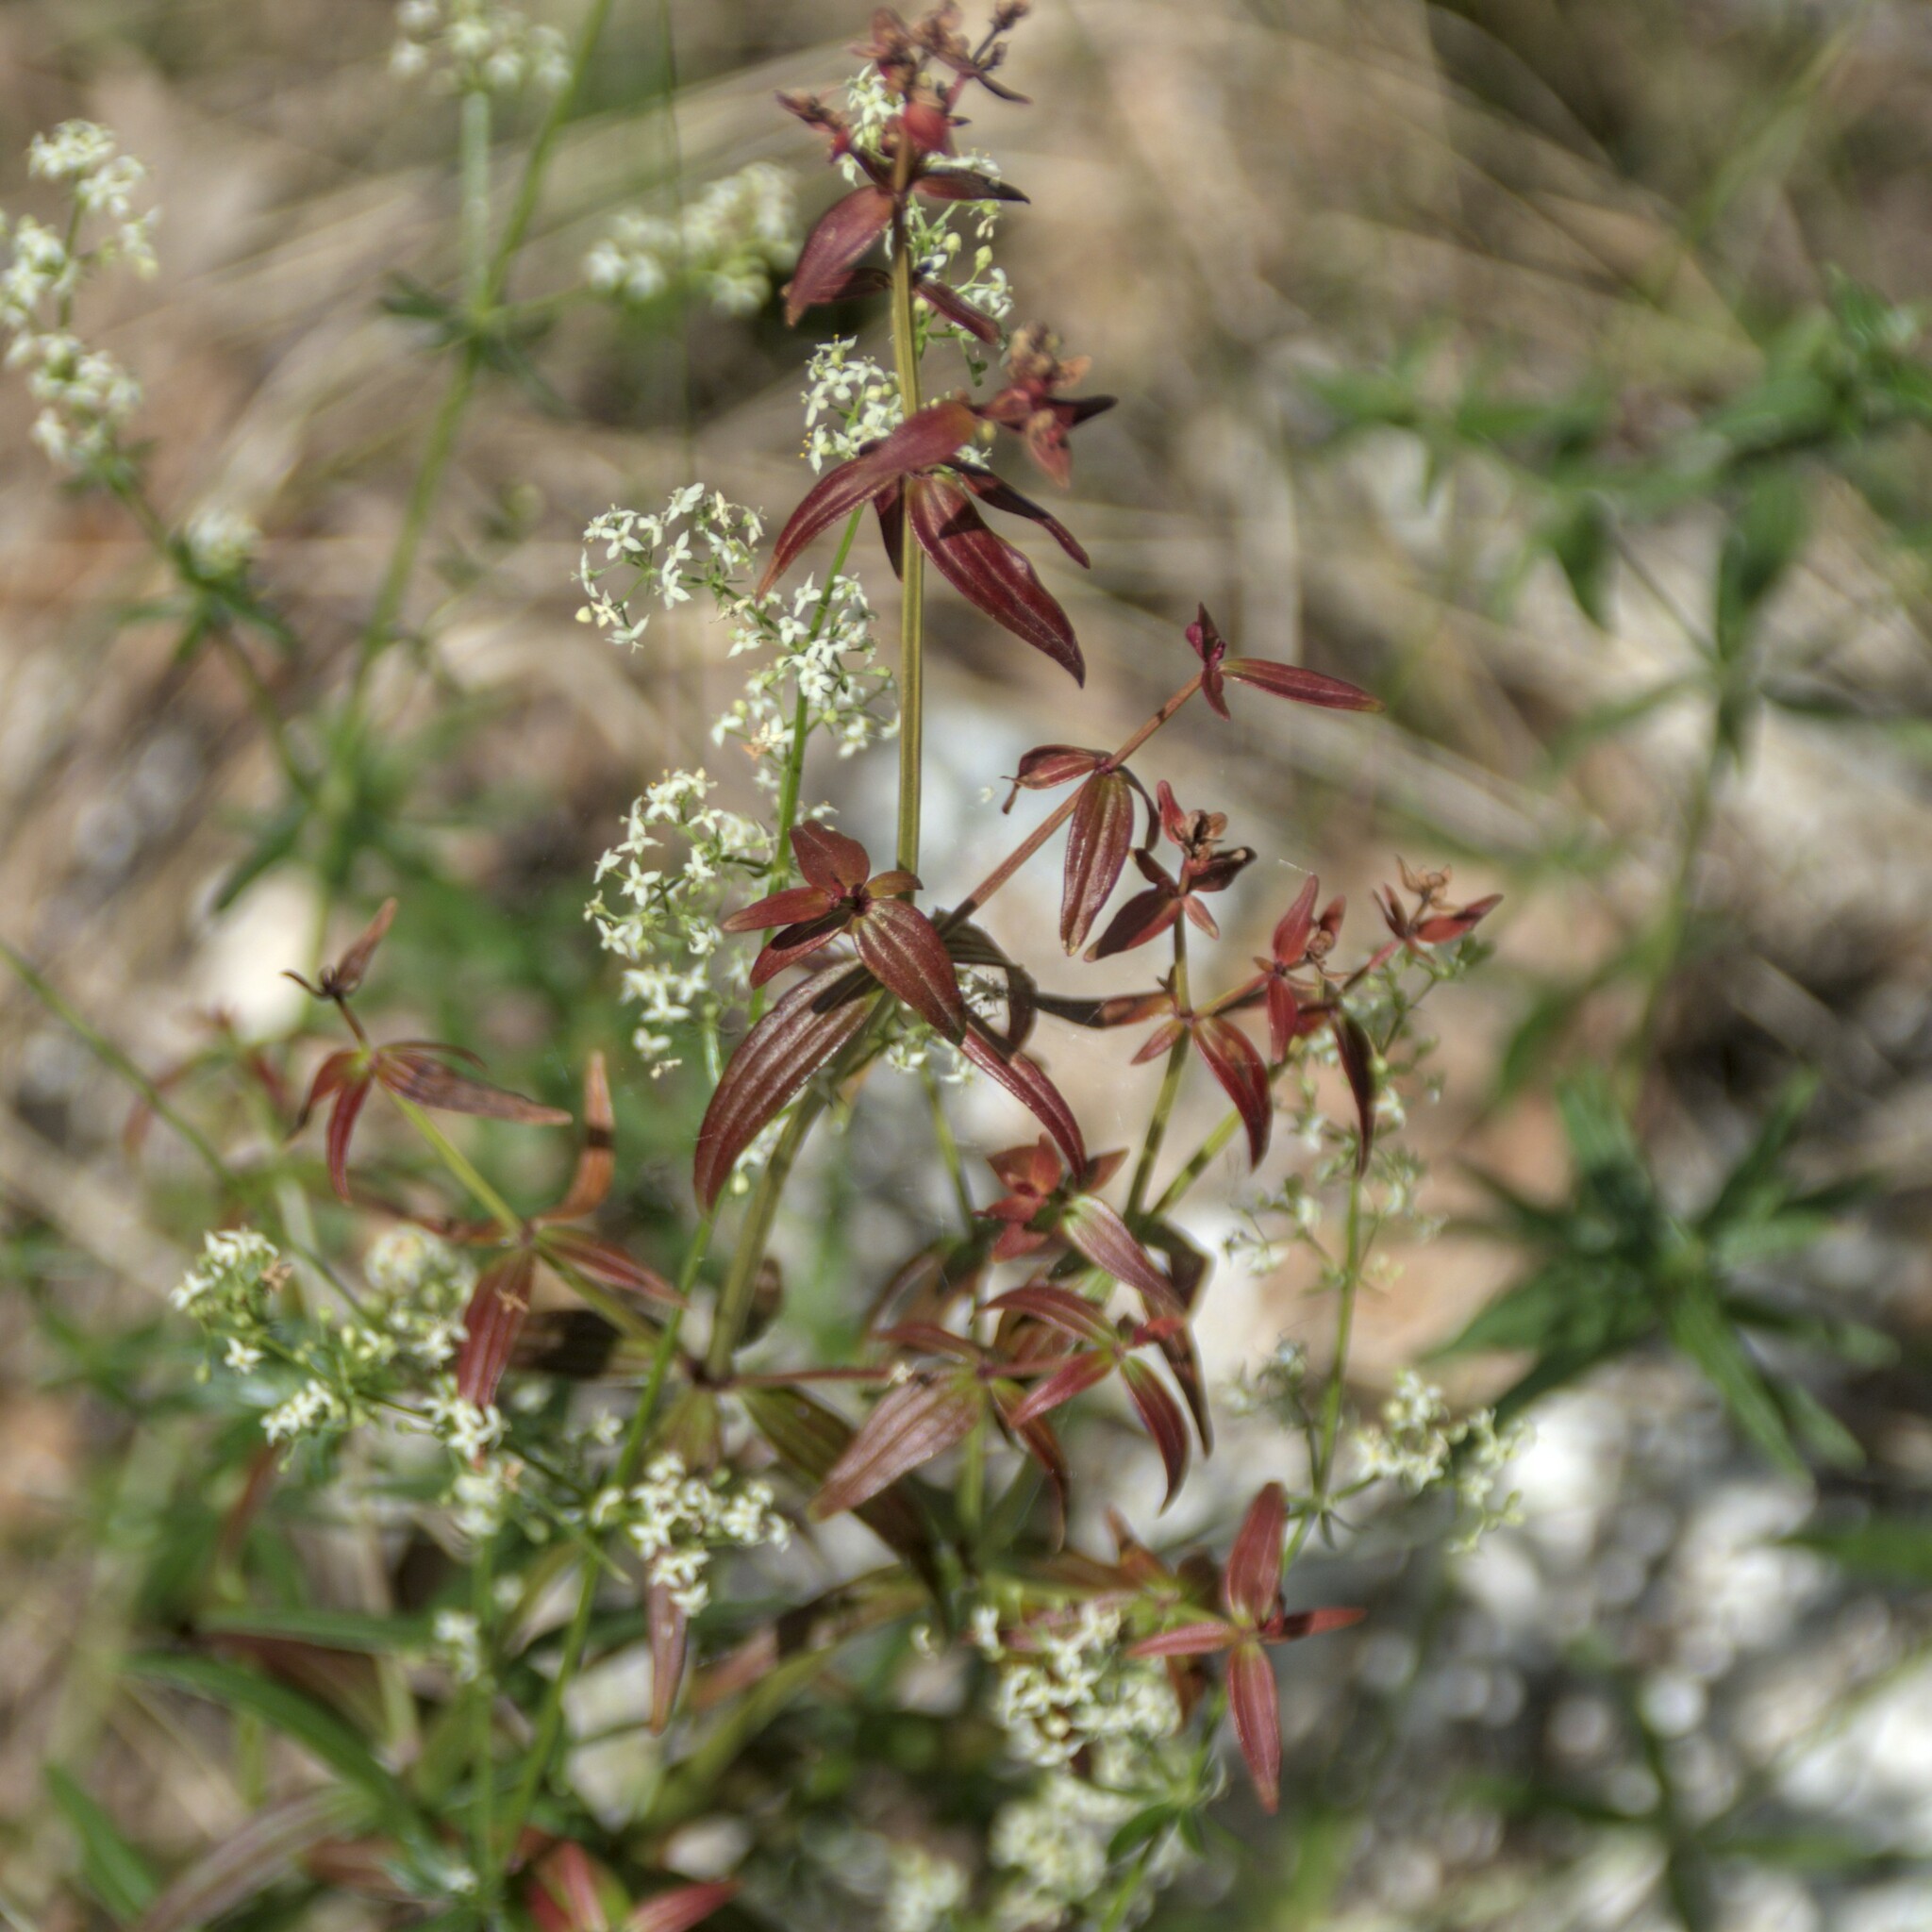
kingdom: Plantae
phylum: Tracheophyta
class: Magnoliopsida
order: Gentianales
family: Rubiaceae
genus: Galium
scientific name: Galium boreale
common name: Northern bedstraw
